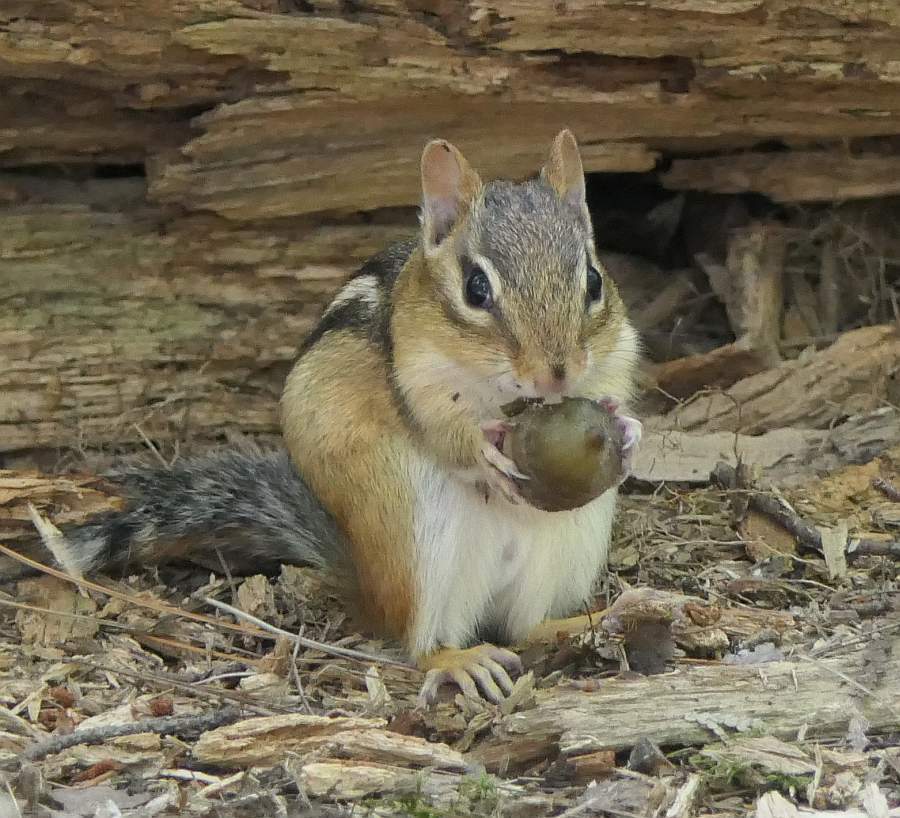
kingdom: Animalia
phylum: Chordata
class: Mammalia
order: Rodentia
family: Sciuridae
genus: Tamias
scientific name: Tamias striatus
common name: Eastern chipmunk
